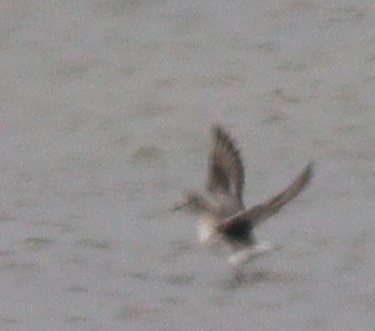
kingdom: Animalia
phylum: Chordata
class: Aves
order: Charadriiformes
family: Charadriidae
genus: Pluvialis
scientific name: Pluvialis squatarola
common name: Grey plover
